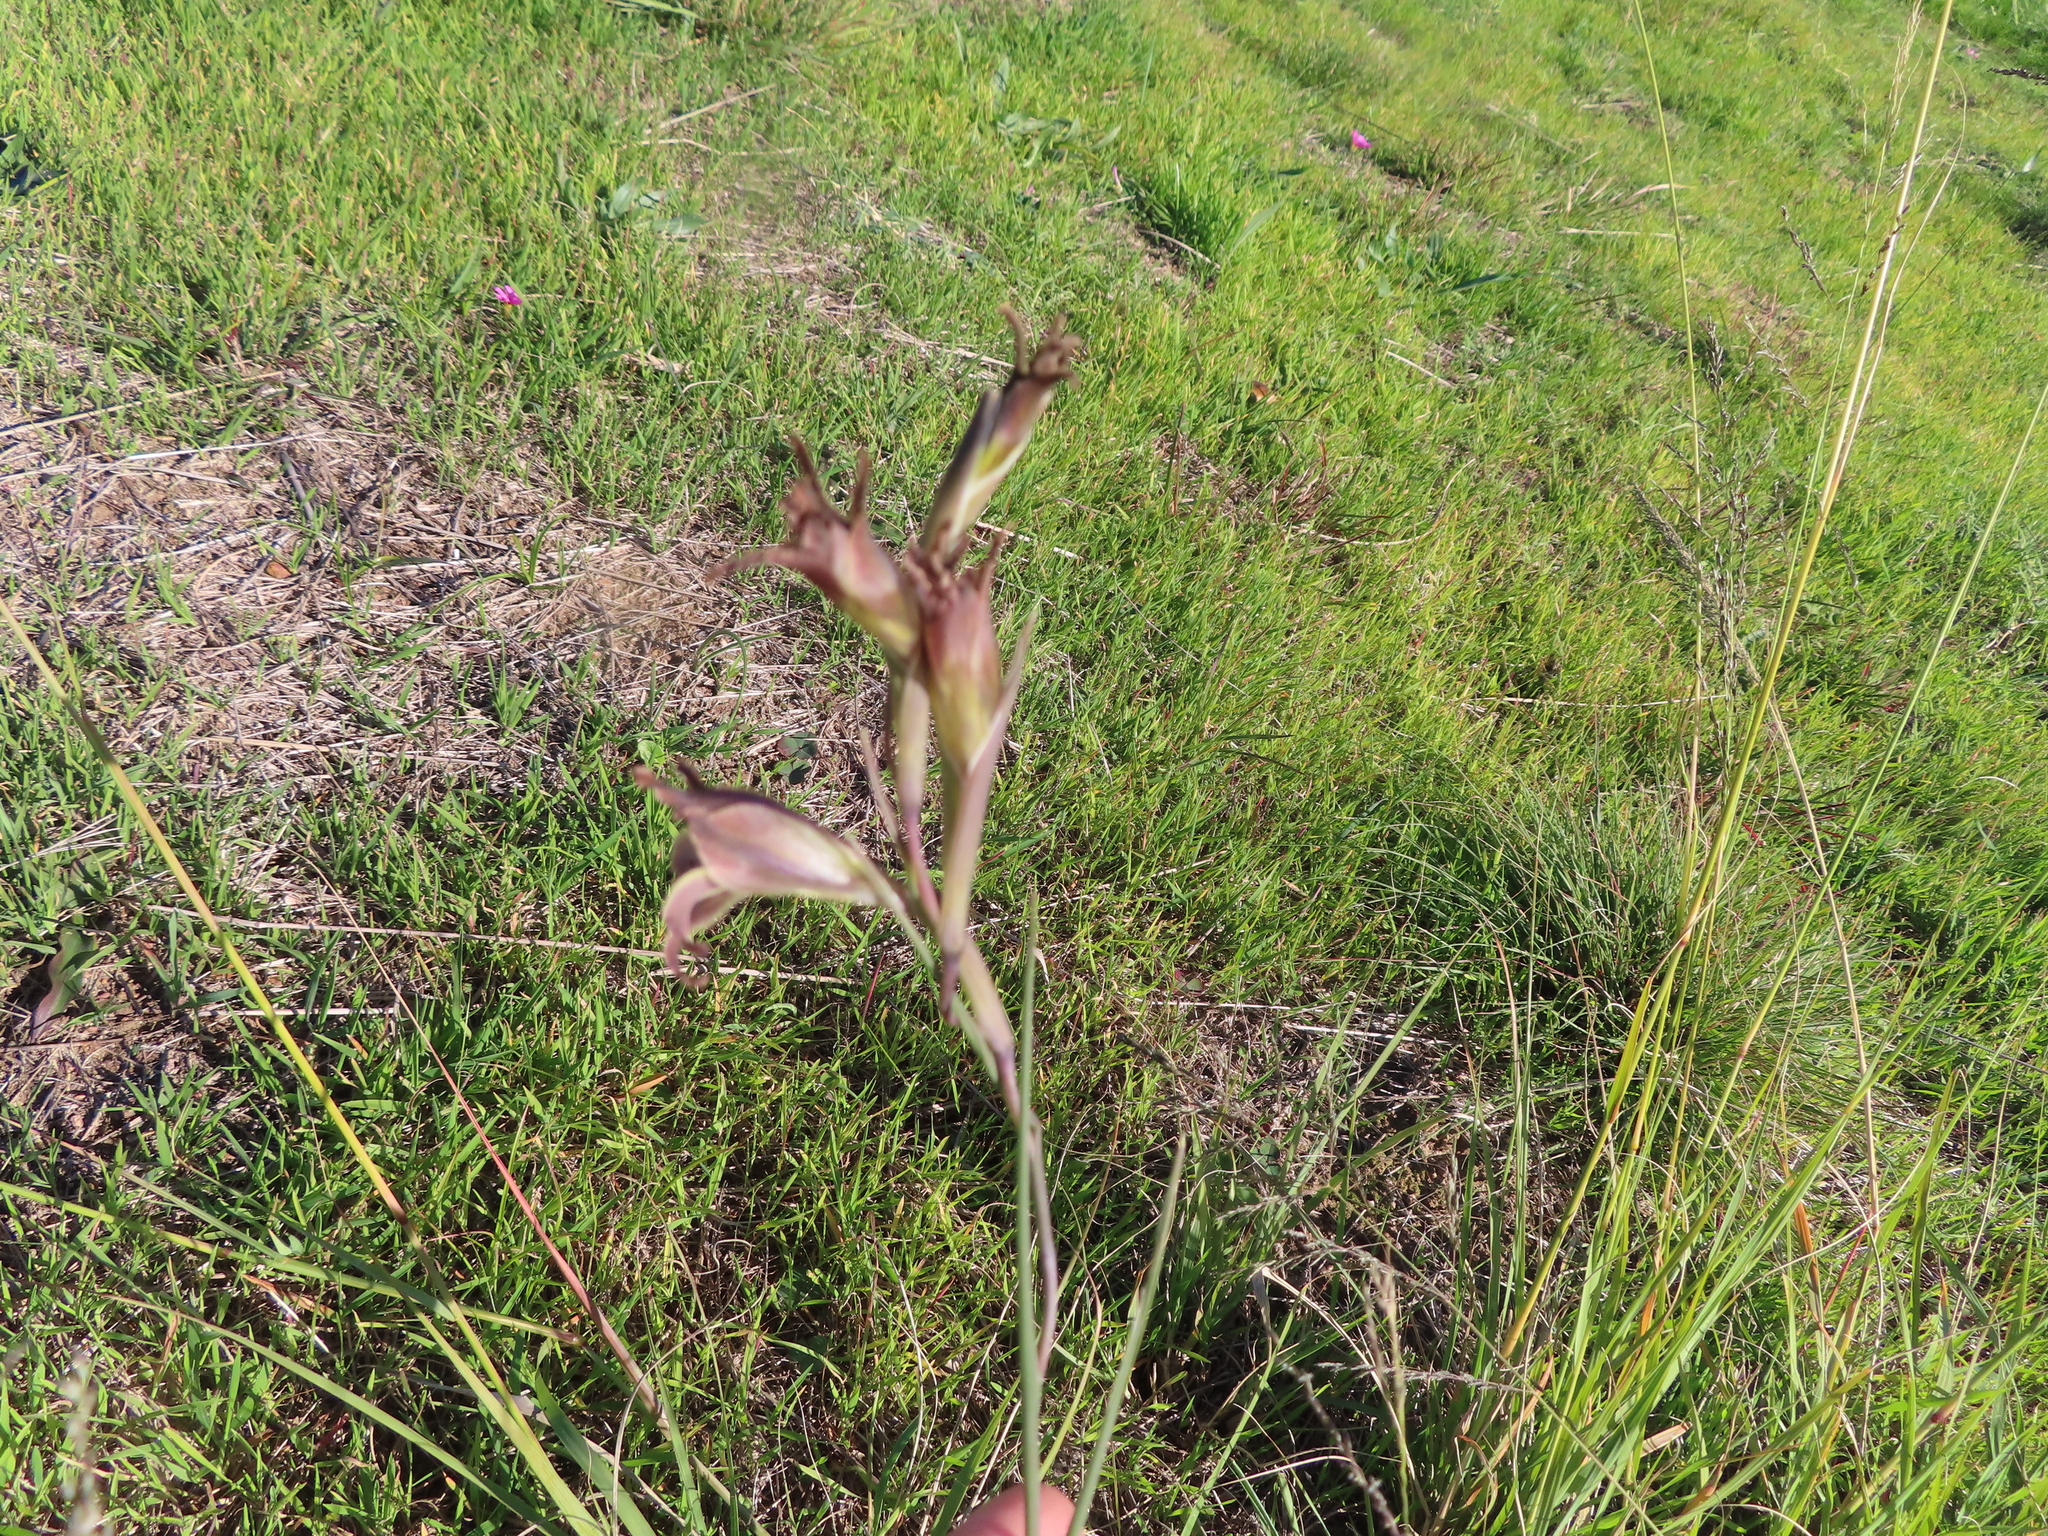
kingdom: Plantae
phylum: Tracheophyta
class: Liliopsida
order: Asparagales
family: Iridaceae
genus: Gladiolus
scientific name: Gladiolus recurvus
